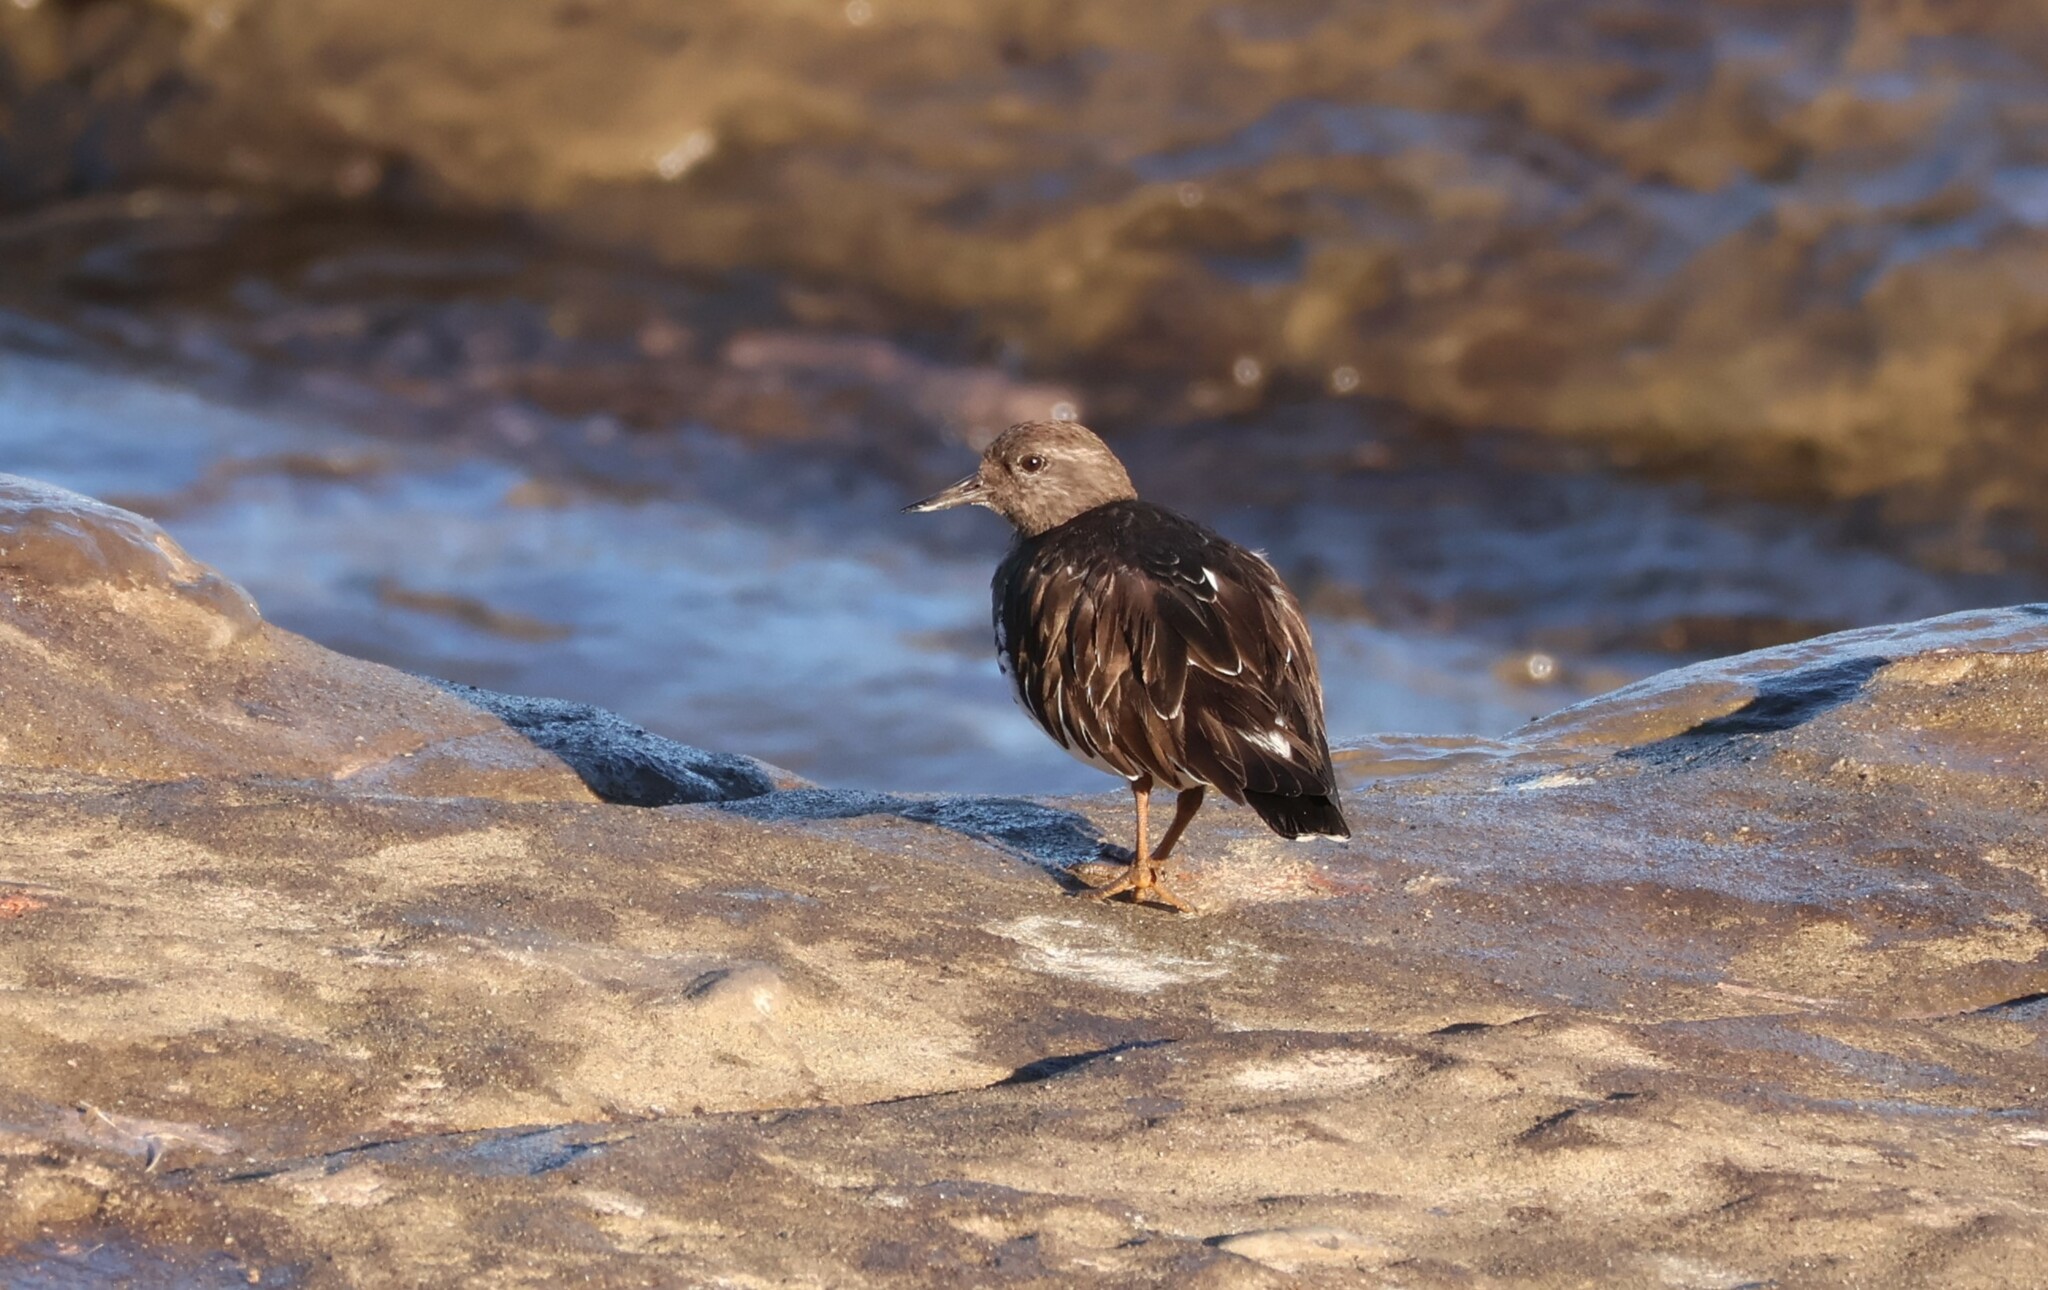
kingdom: Animalia
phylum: Chordata
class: Aves
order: Charadriiformes
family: Scolopacidae
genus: Arenaria
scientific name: Arenaria melanocephala
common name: Black turnstone
